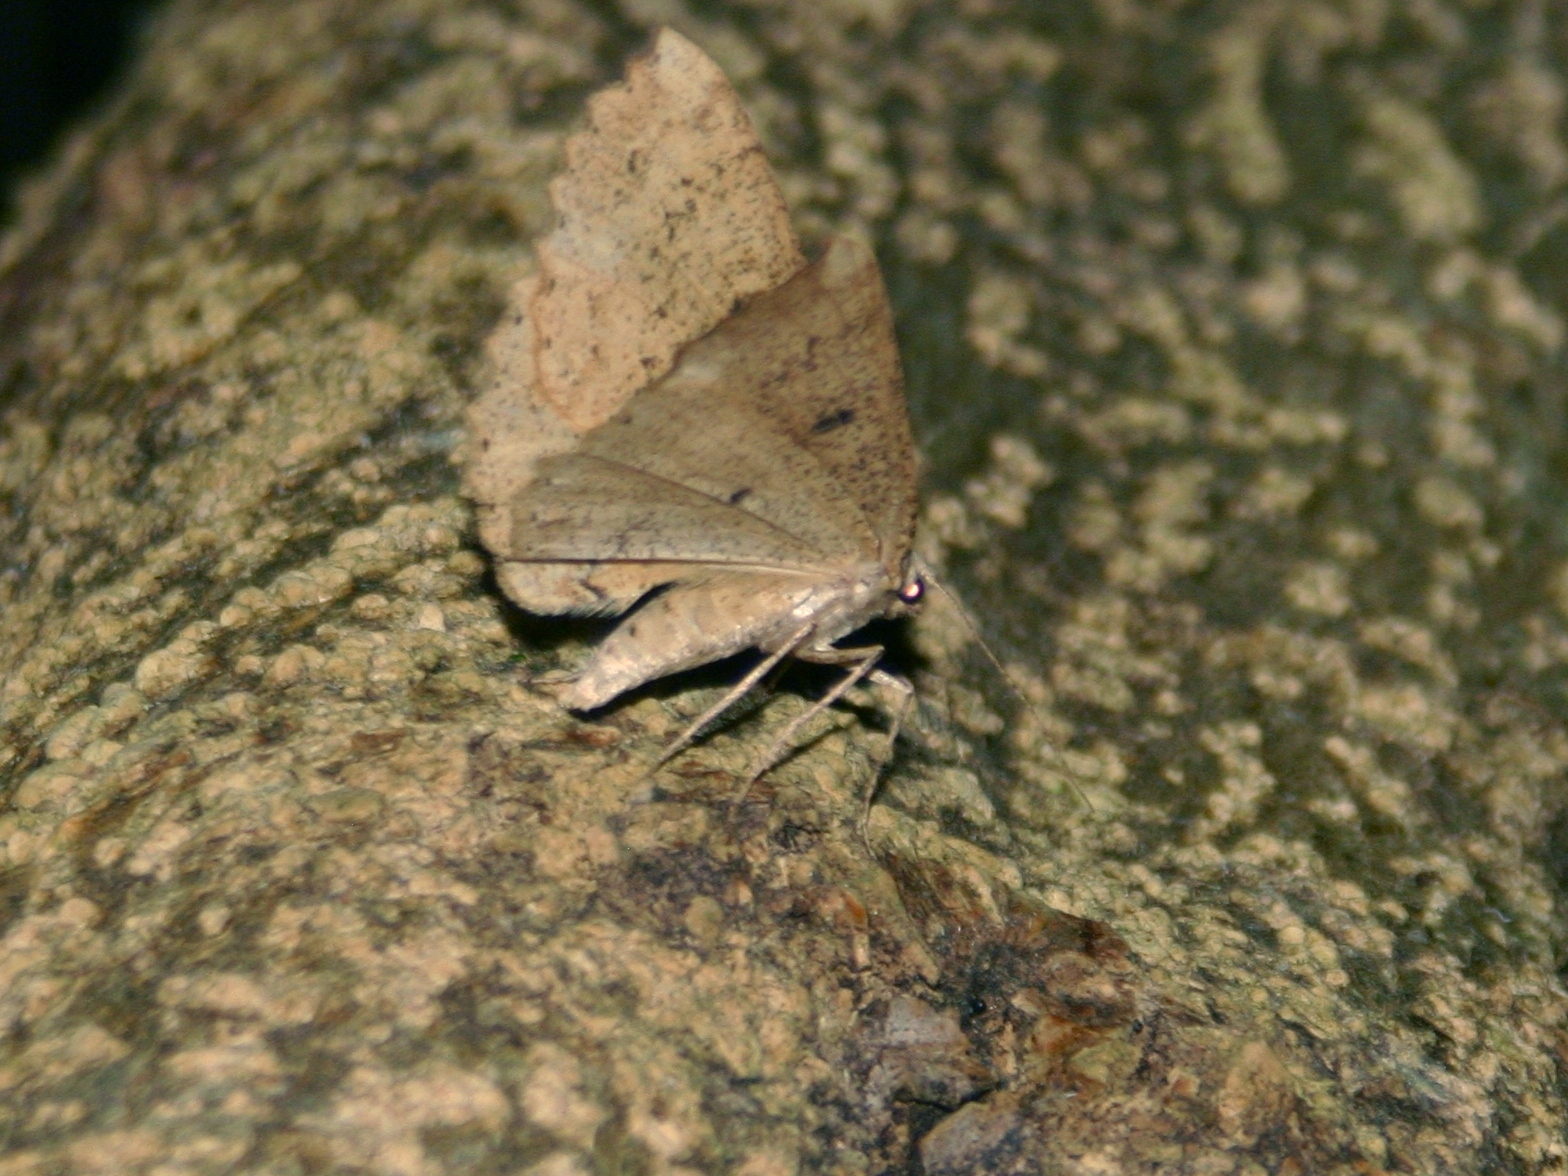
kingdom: Animalia
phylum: Arthropoda
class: Insecta
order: Lepidoptera
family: Geometridae
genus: Cleora
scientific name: Cleora scriptaria
